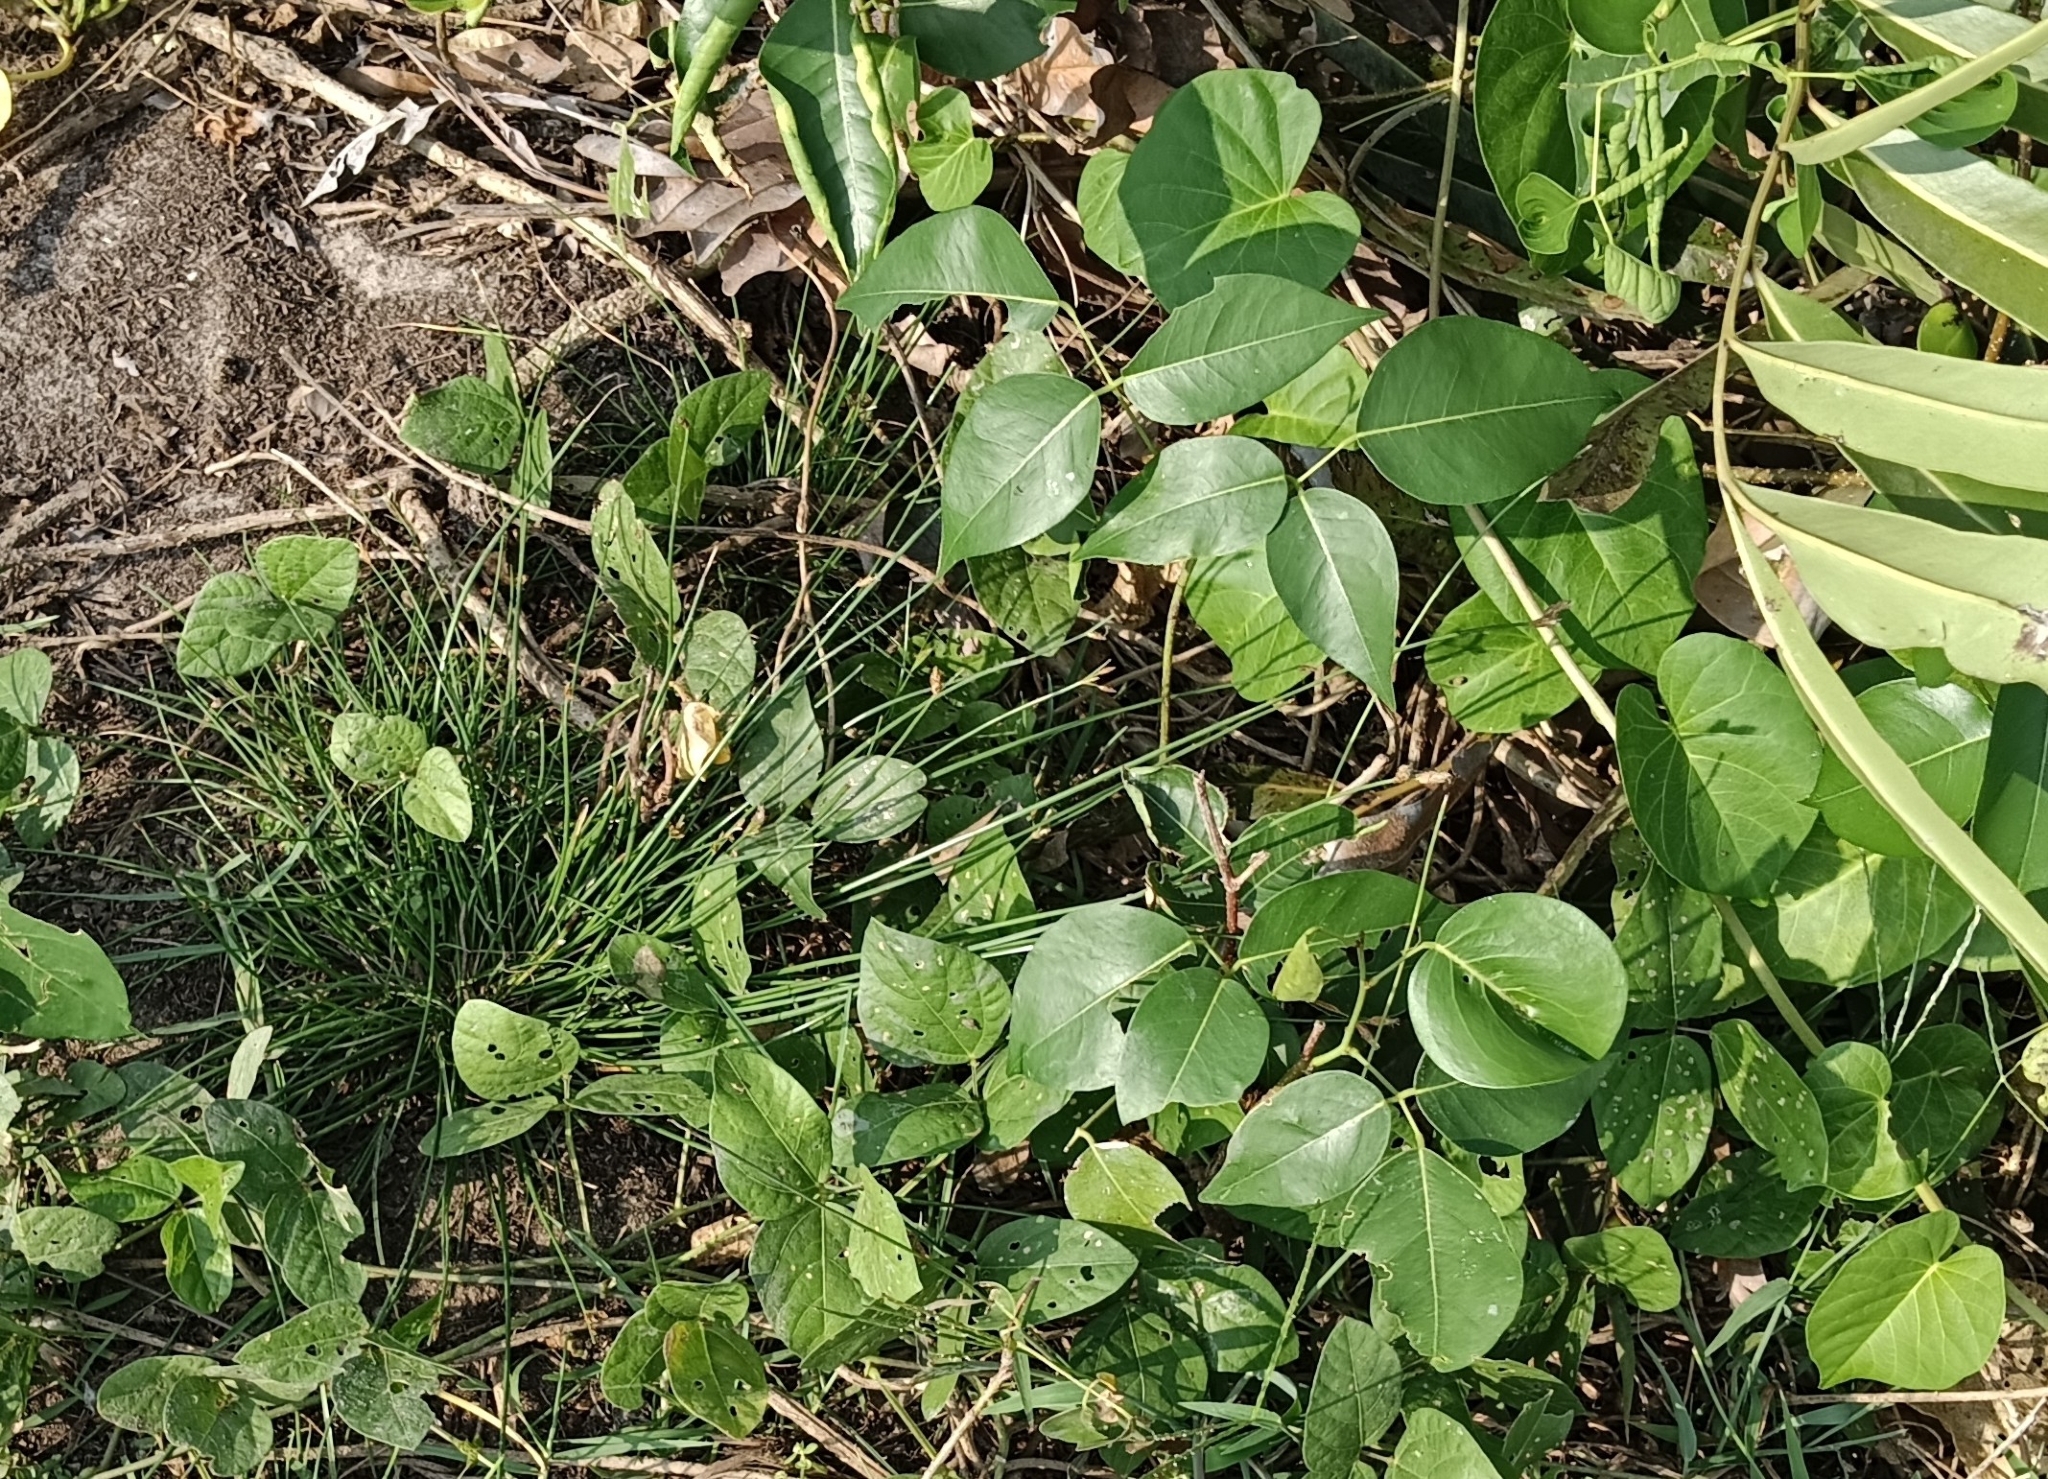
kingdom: Plantae
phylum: Tracheophyta
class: Magnoliopsida
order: Fabales
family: Fabaceae
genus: Derris
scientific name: Derris trifoliata
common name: Three-leaf derris
